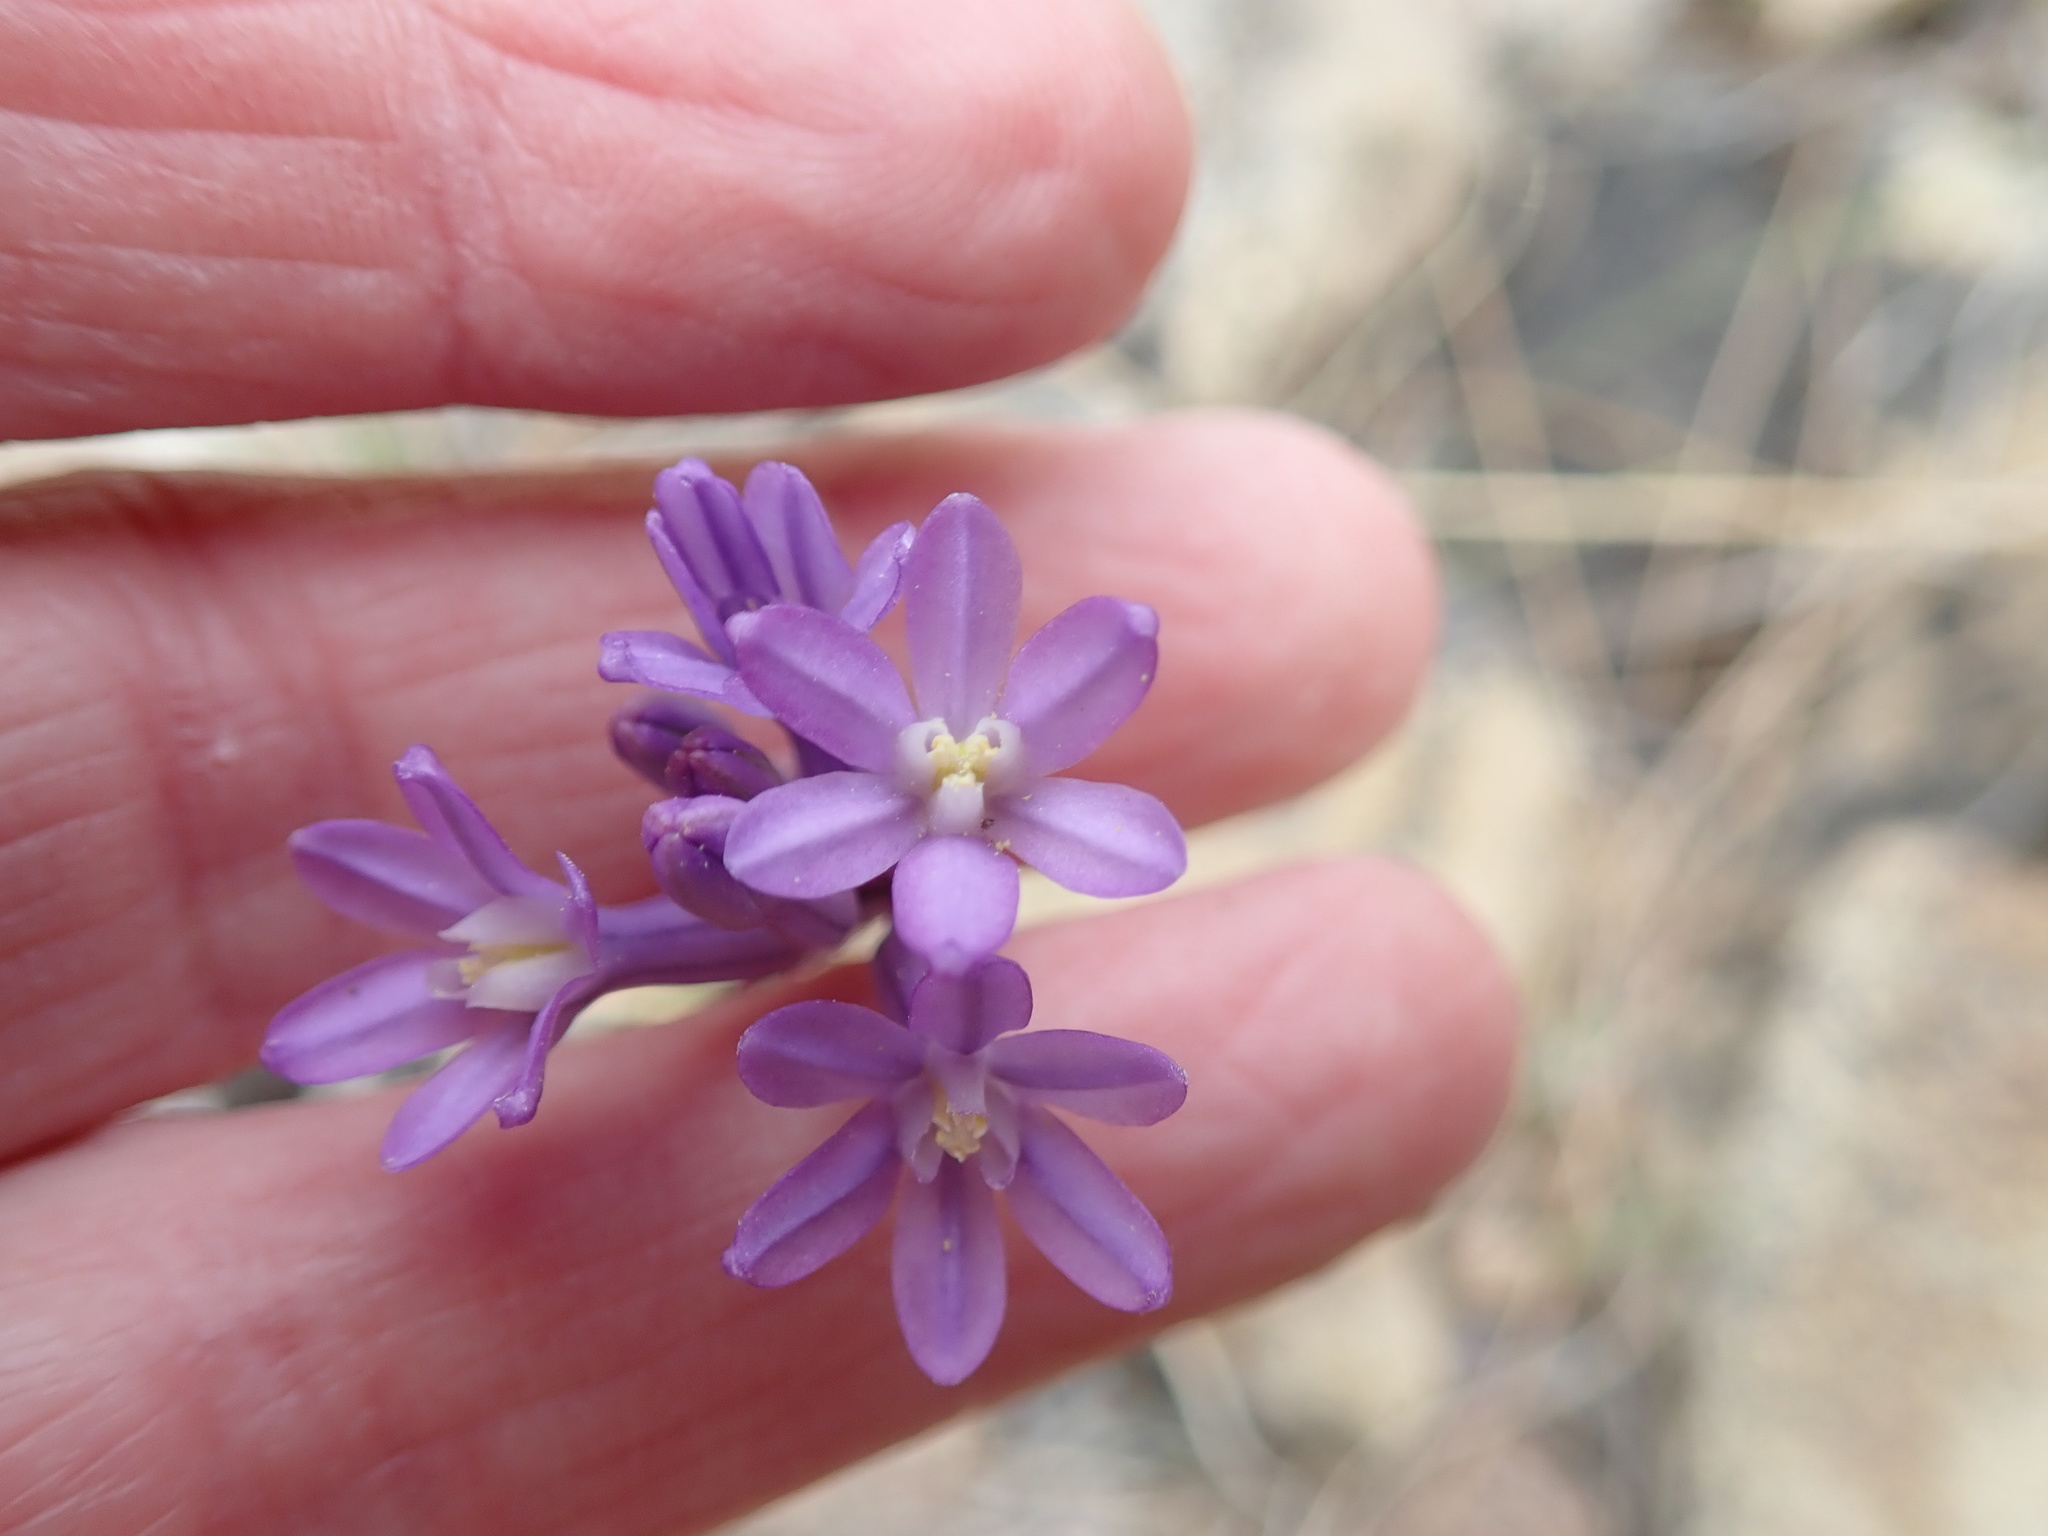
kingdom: Plantae
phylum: Tracheophyta
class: Liliopsida
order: Asparagales
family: Asparagaceae
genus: Dichelostemma
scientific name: Dichelostemma multiflorum
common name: Round-tooth ookow
